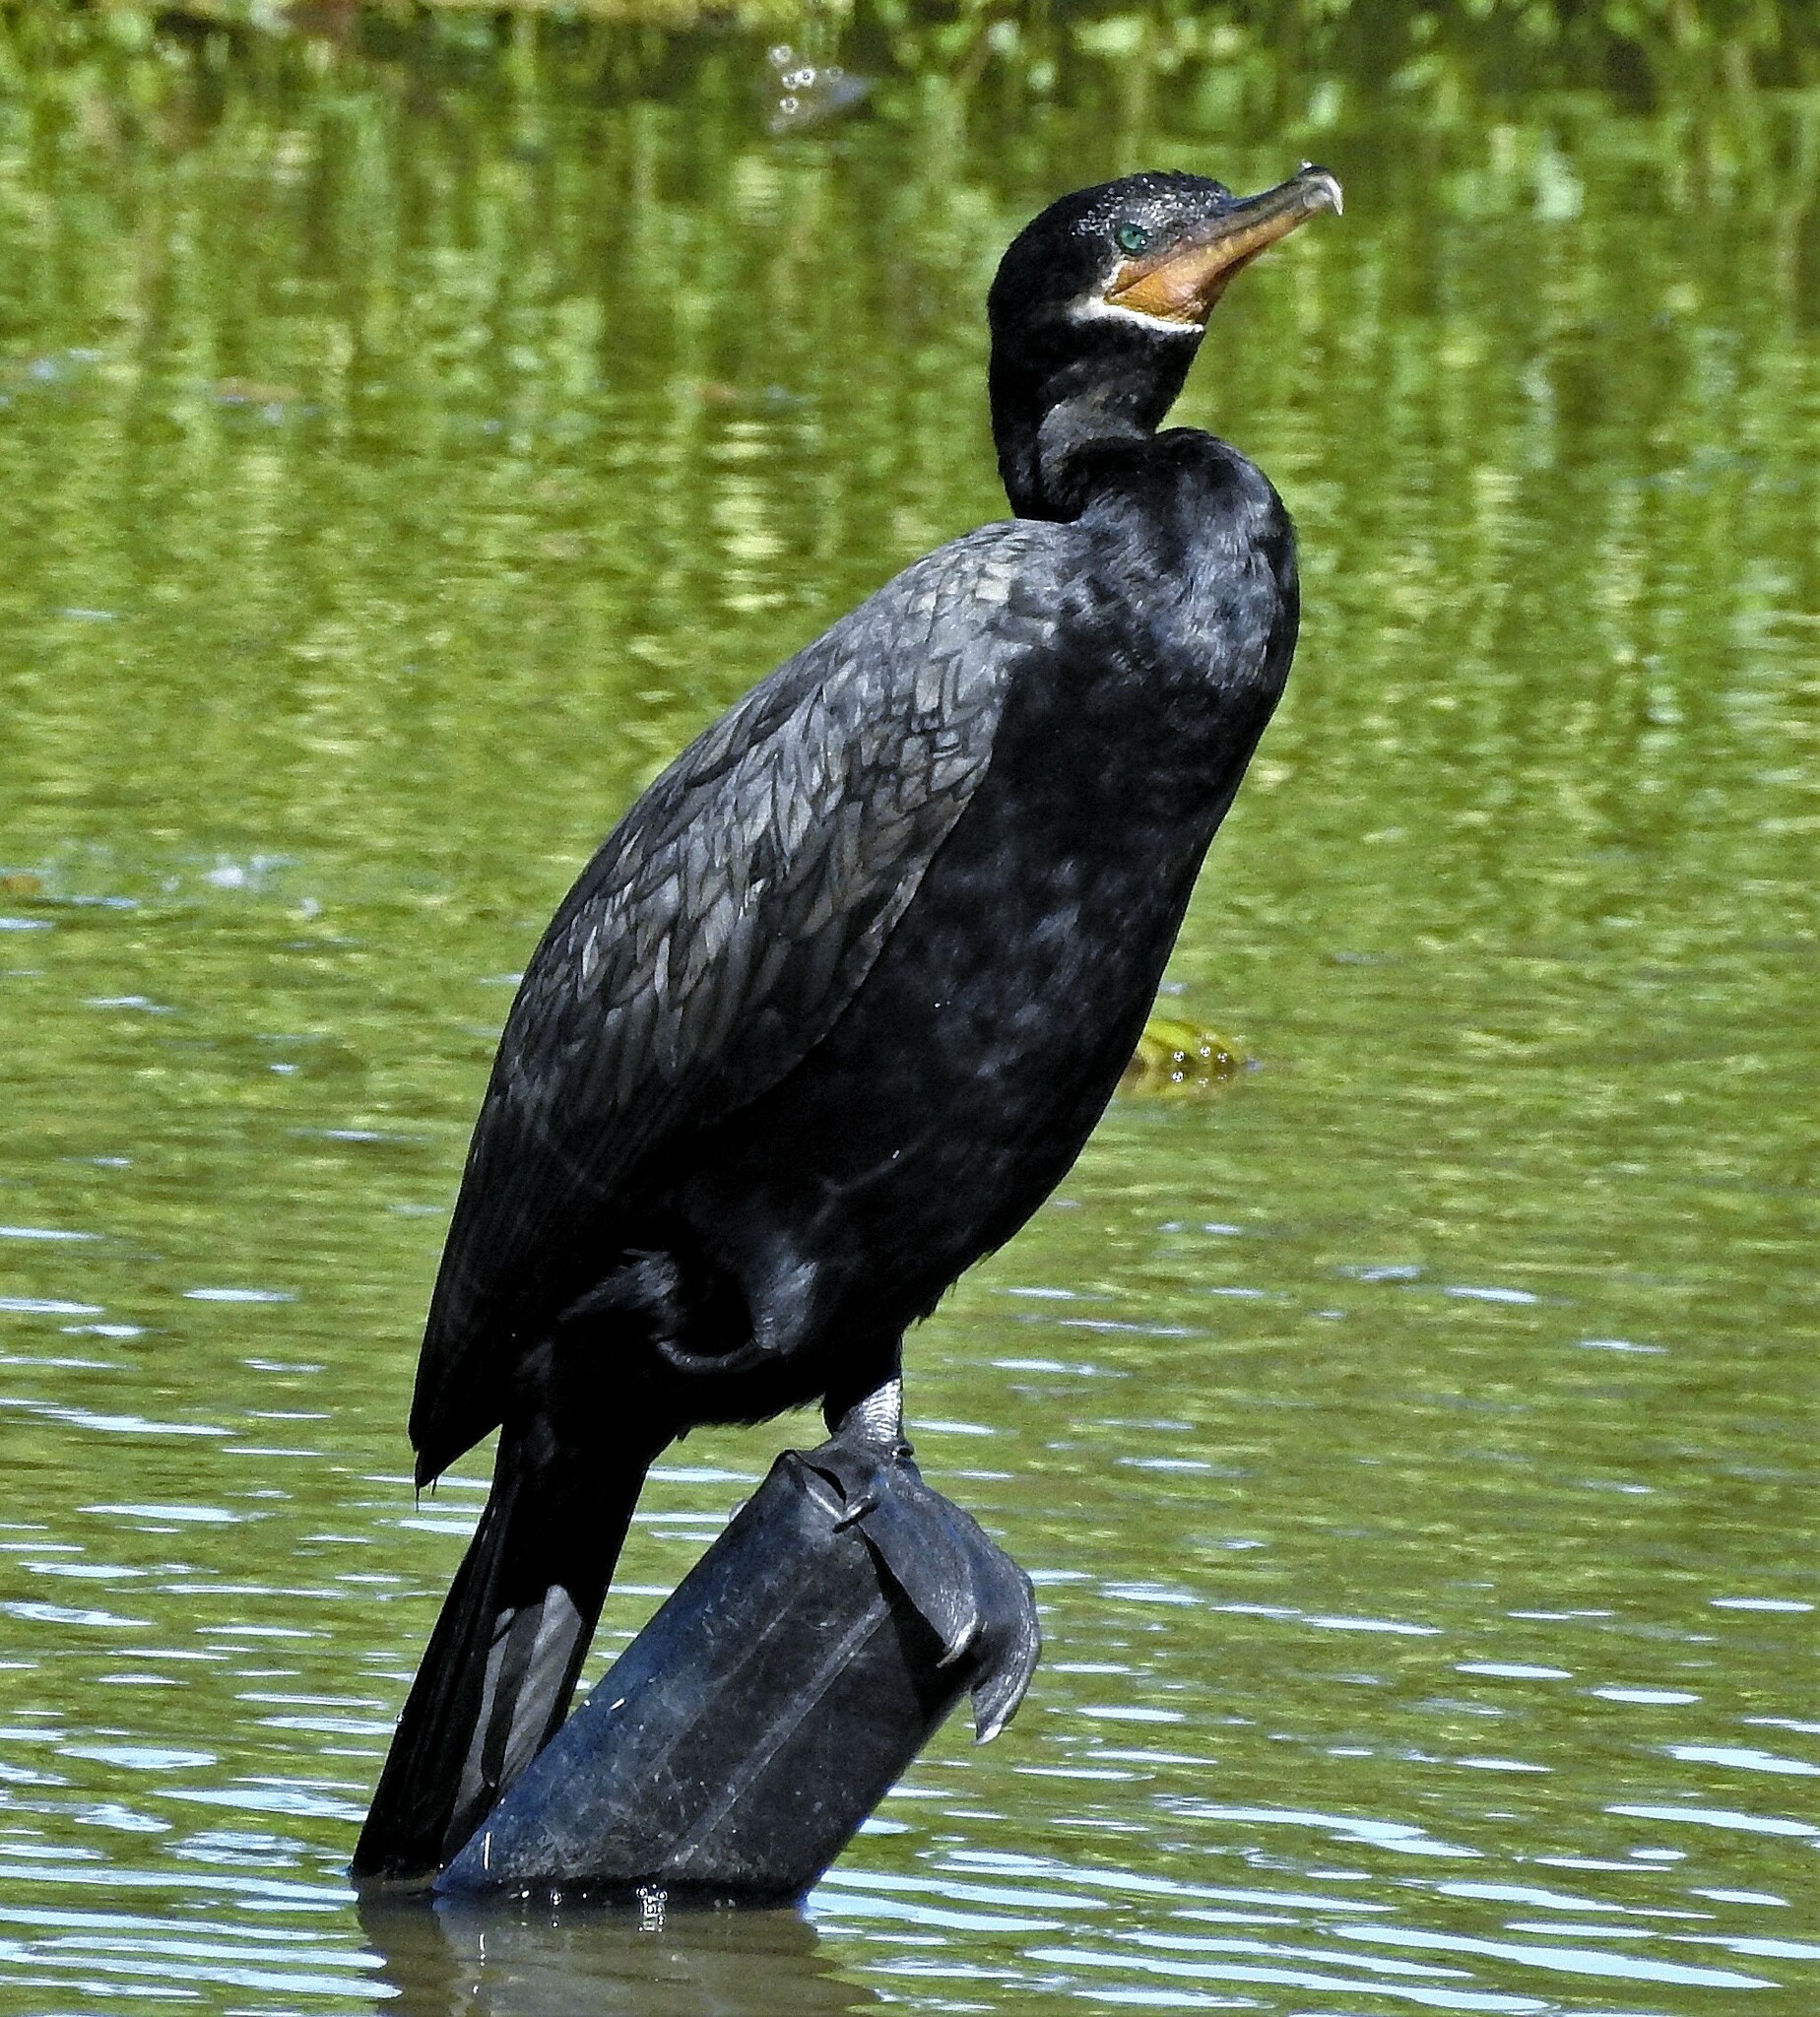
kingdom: Animalia
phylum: Chordata
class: Aves
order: Suliformes
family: Phalacrocoracidae
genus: Phalacrocorax
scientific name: Phalacrocorax brasilianus
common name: Neotropic cormorant
